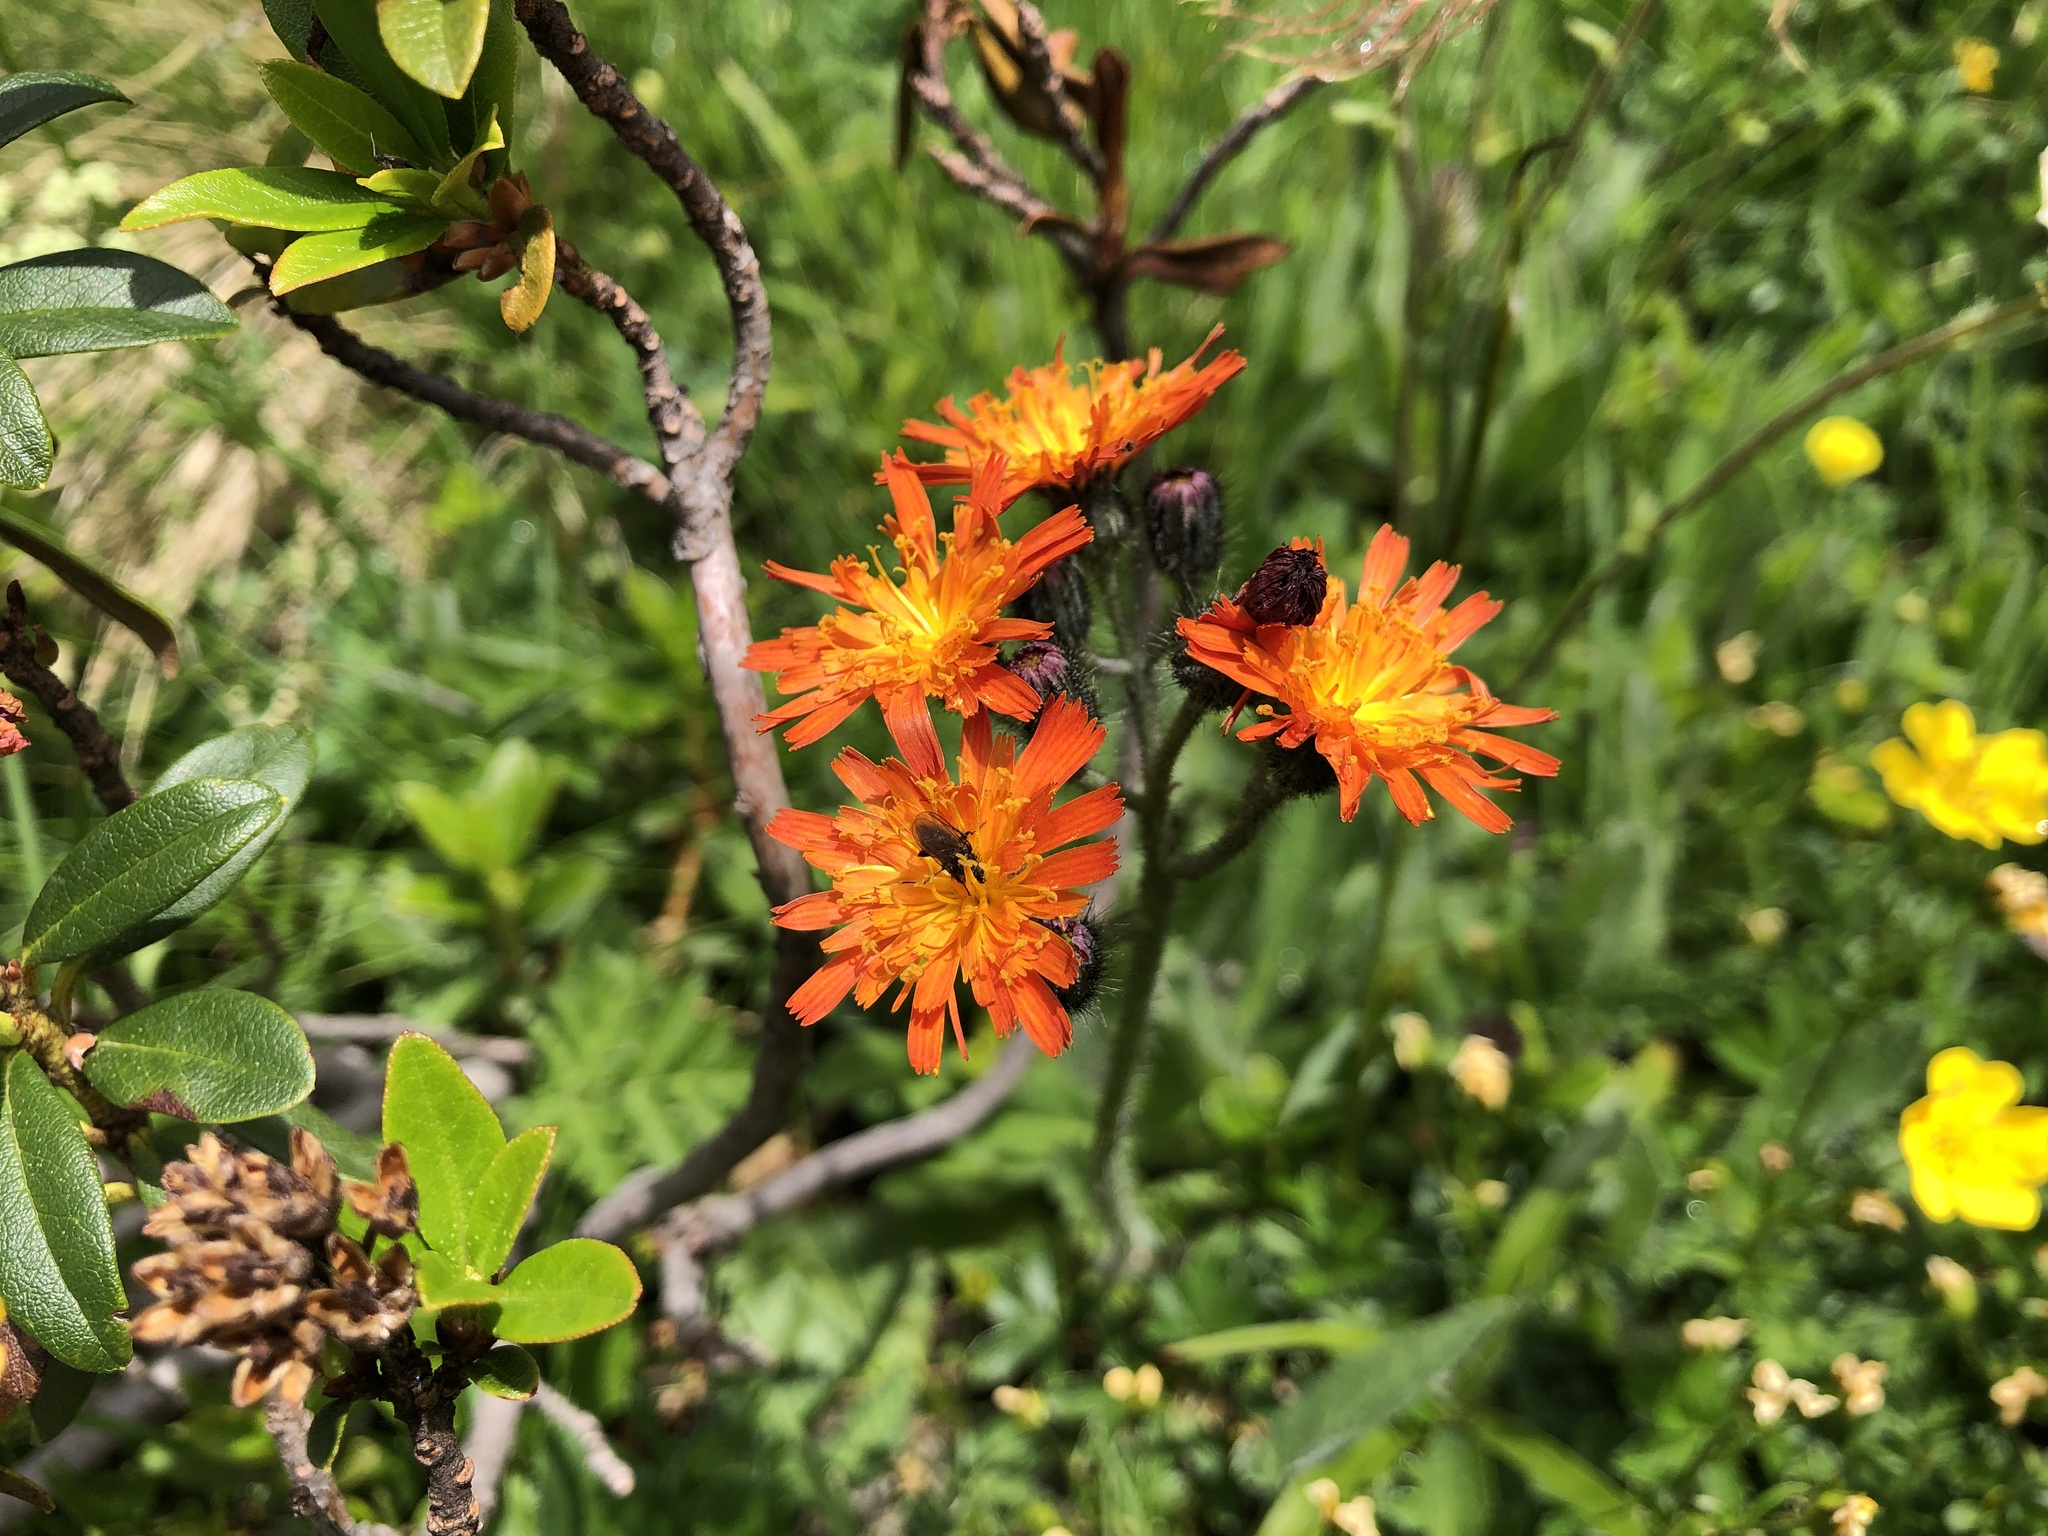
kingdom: Plantae
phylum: Tracheophyta
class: Magnoliopsida
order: Asterales
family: Asteraceae
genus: Pilosella
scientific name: Pilosella aurantiaca
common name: Fox-and-cubs
